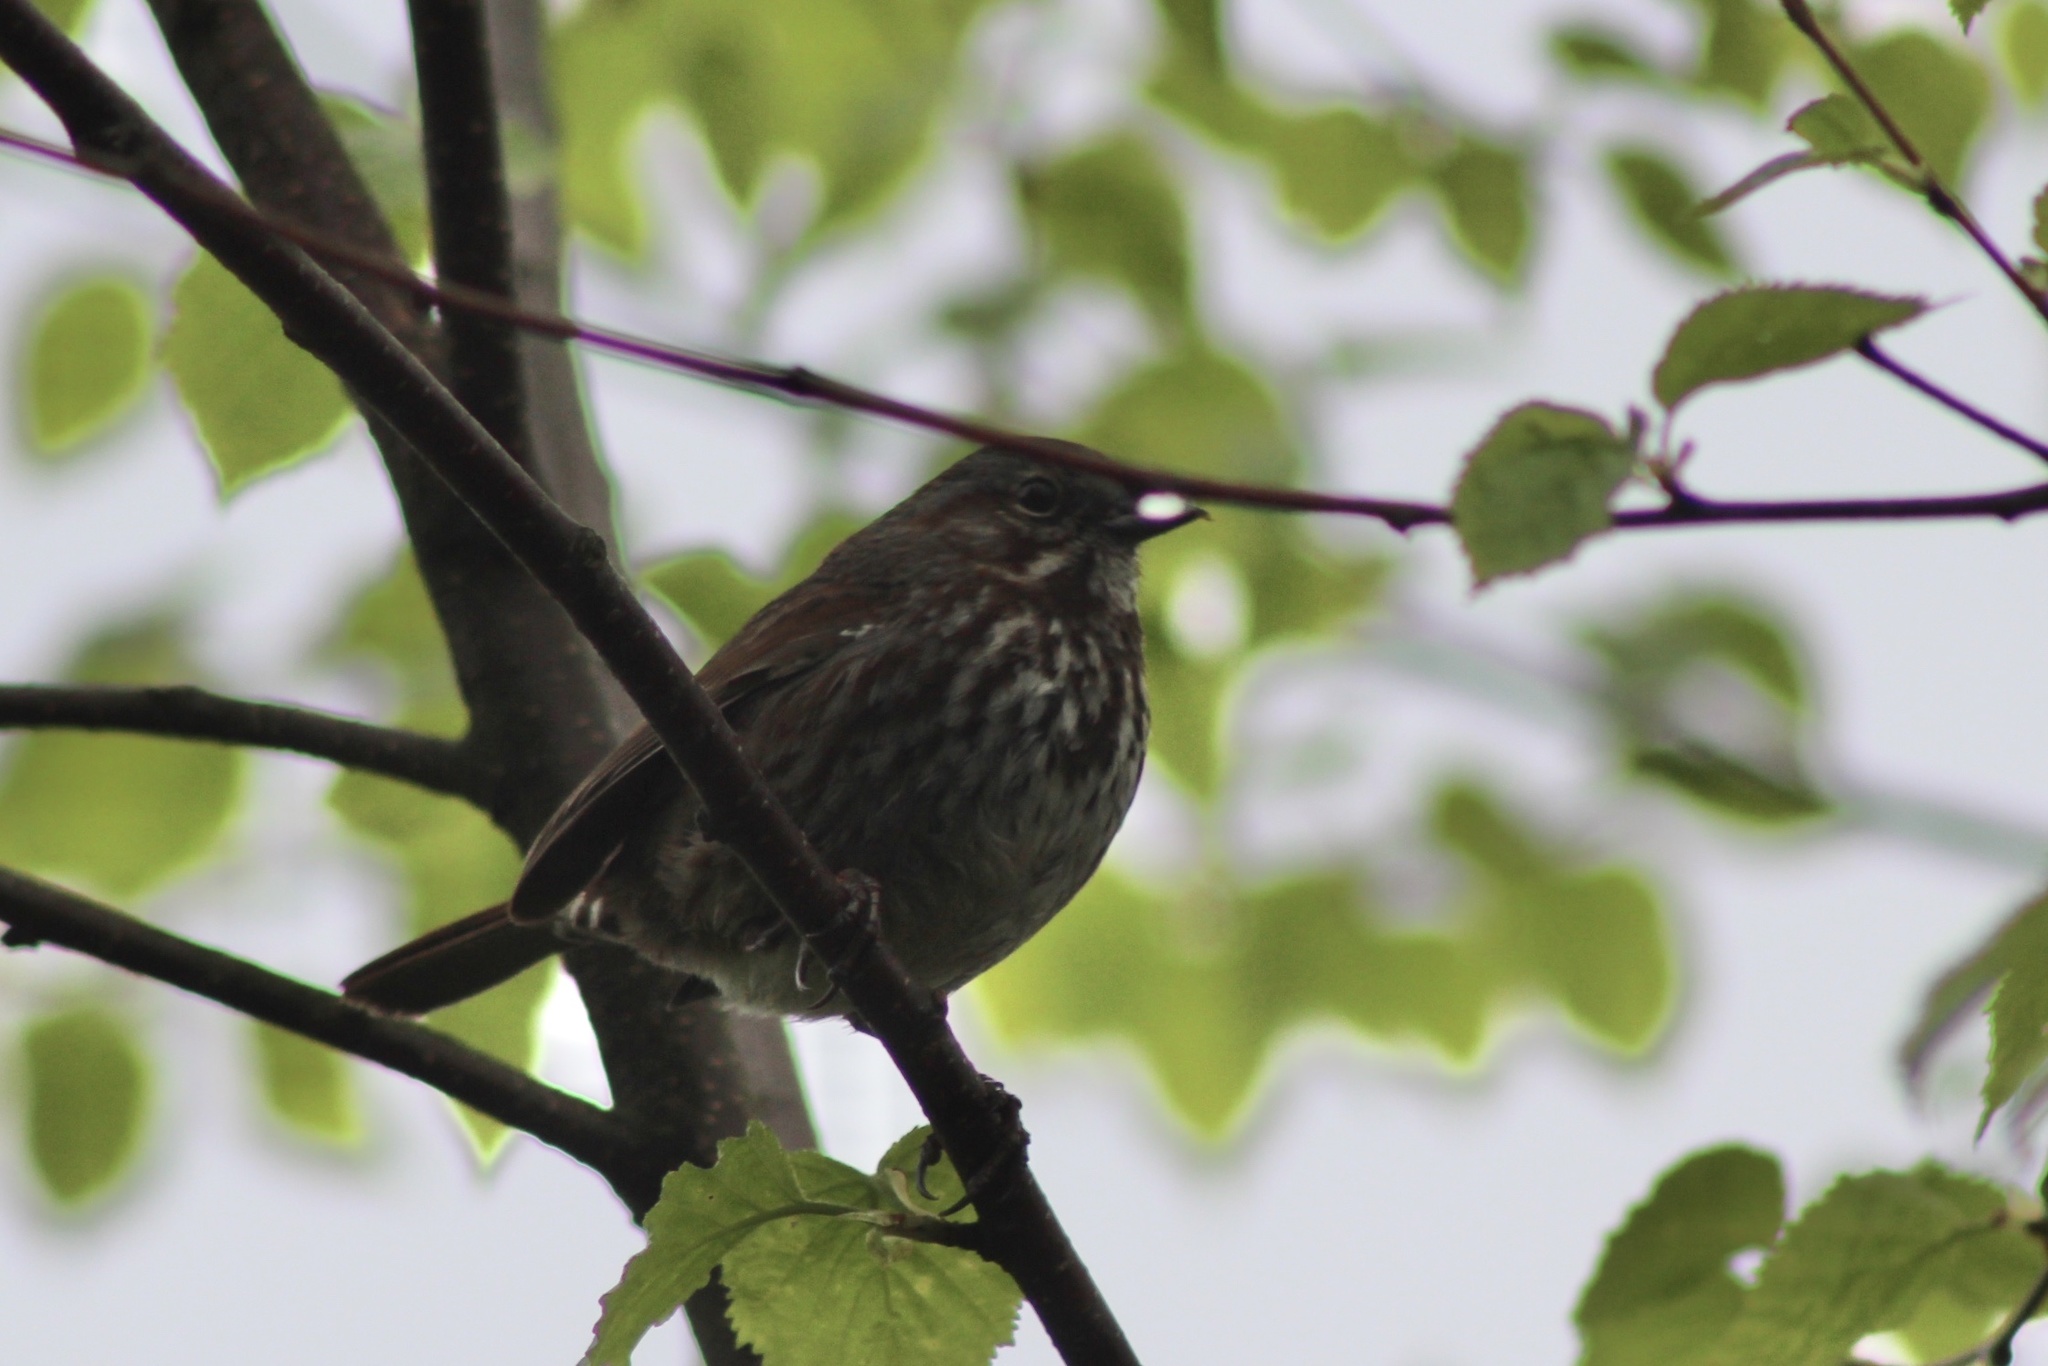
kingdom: Animalia
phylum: Chordata
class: Aves
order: Passeriformes
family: Passerellidae
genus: Melospiza
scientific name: Melospiza melodia
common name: Song sparrow
